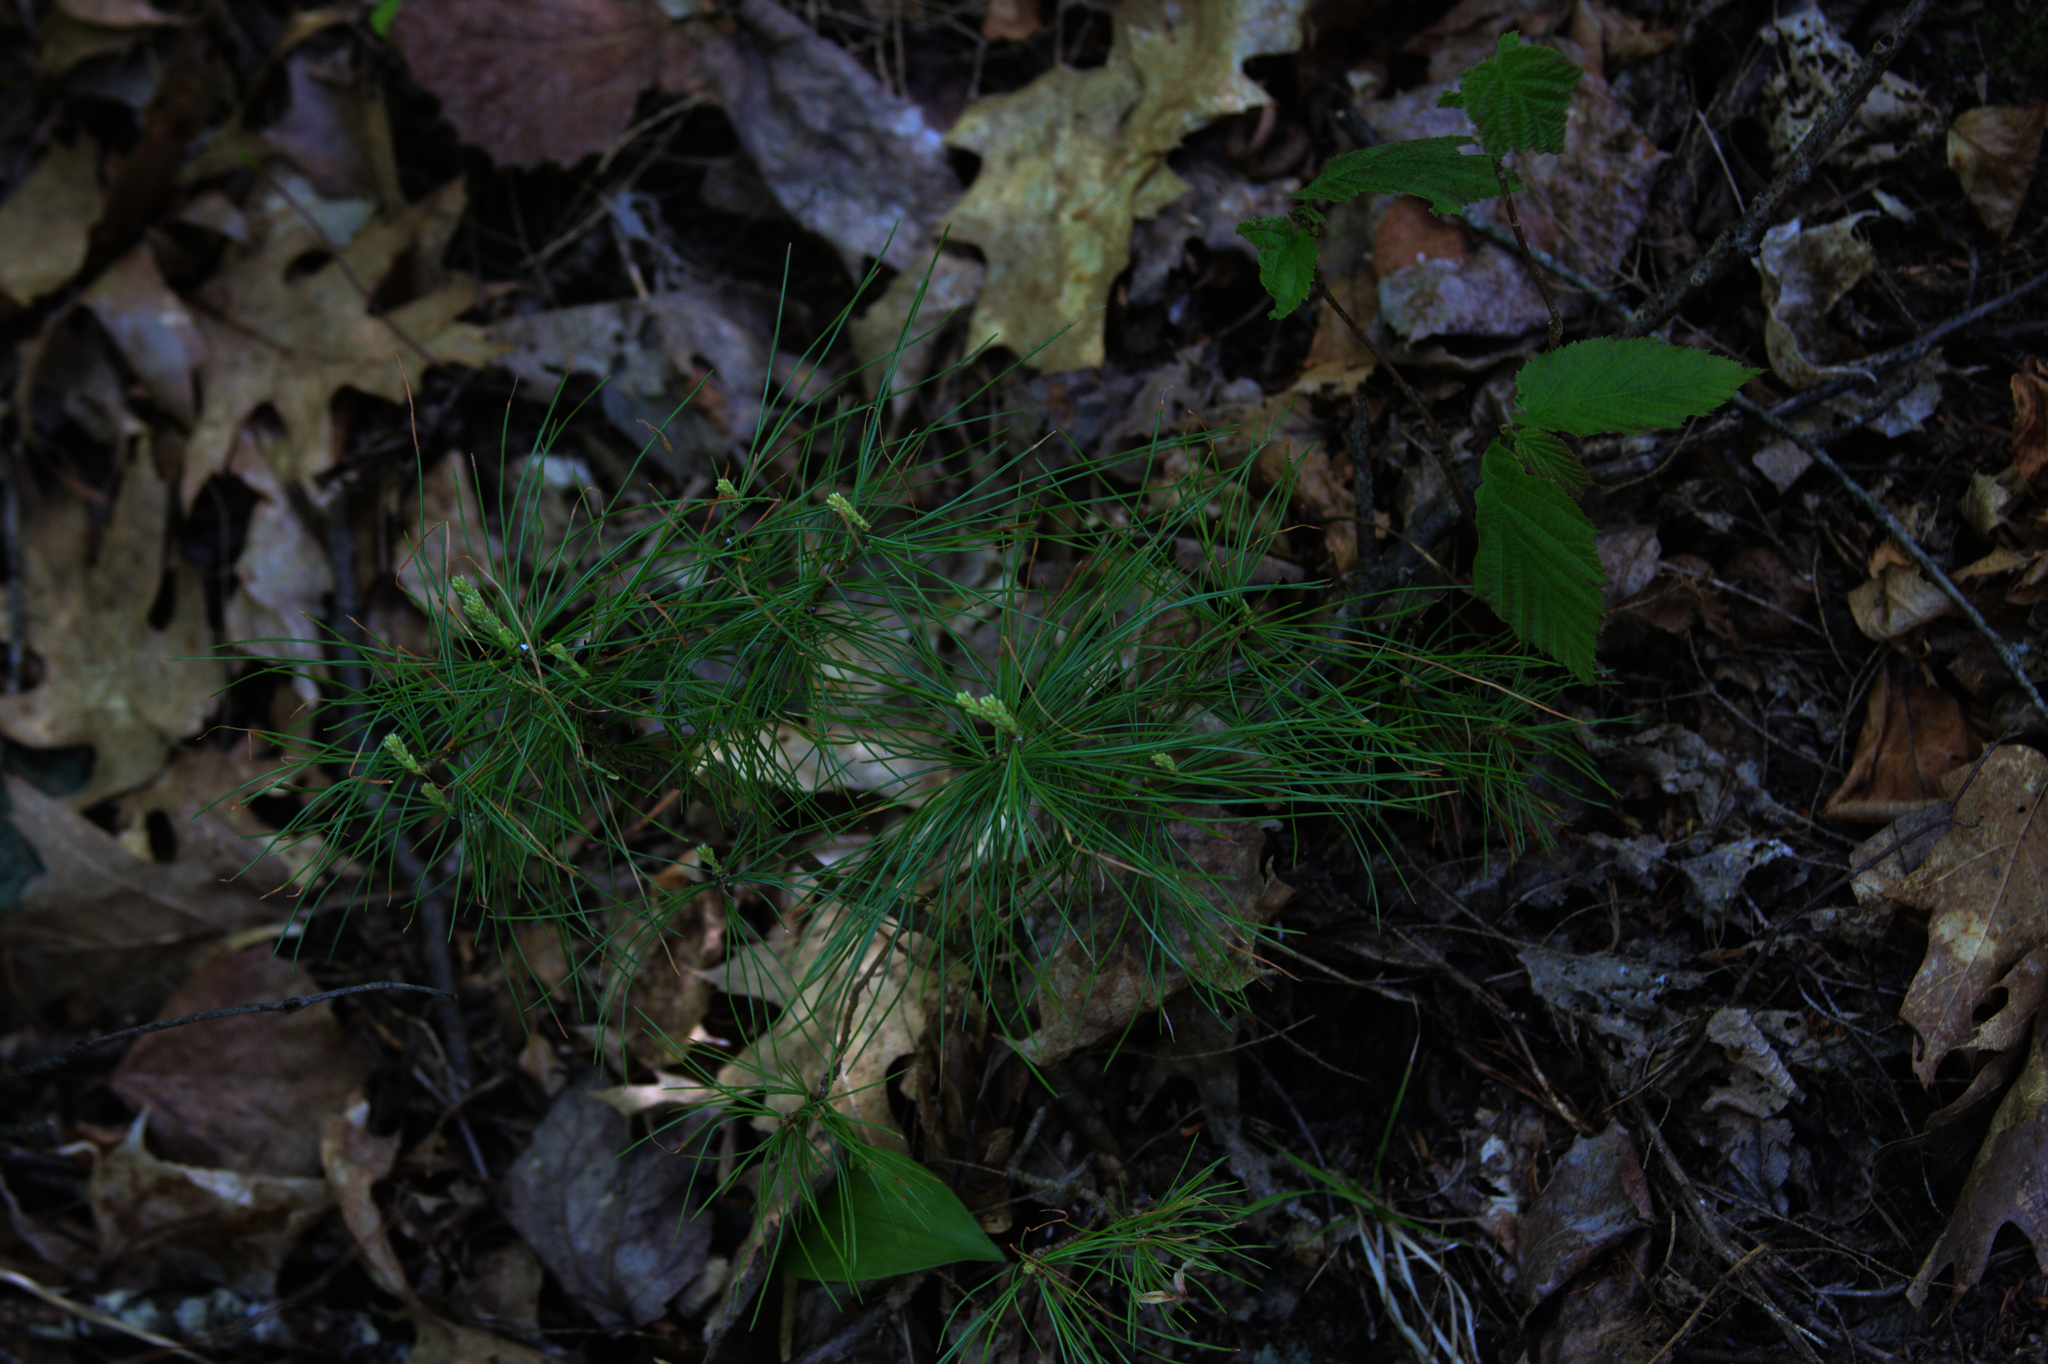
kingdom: Plantae
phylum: Tracheophyta
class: Pinopsida
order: Pinales
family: Pinaceae
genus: Pinus
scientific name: Pinus strobus
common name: Weymouth pine
